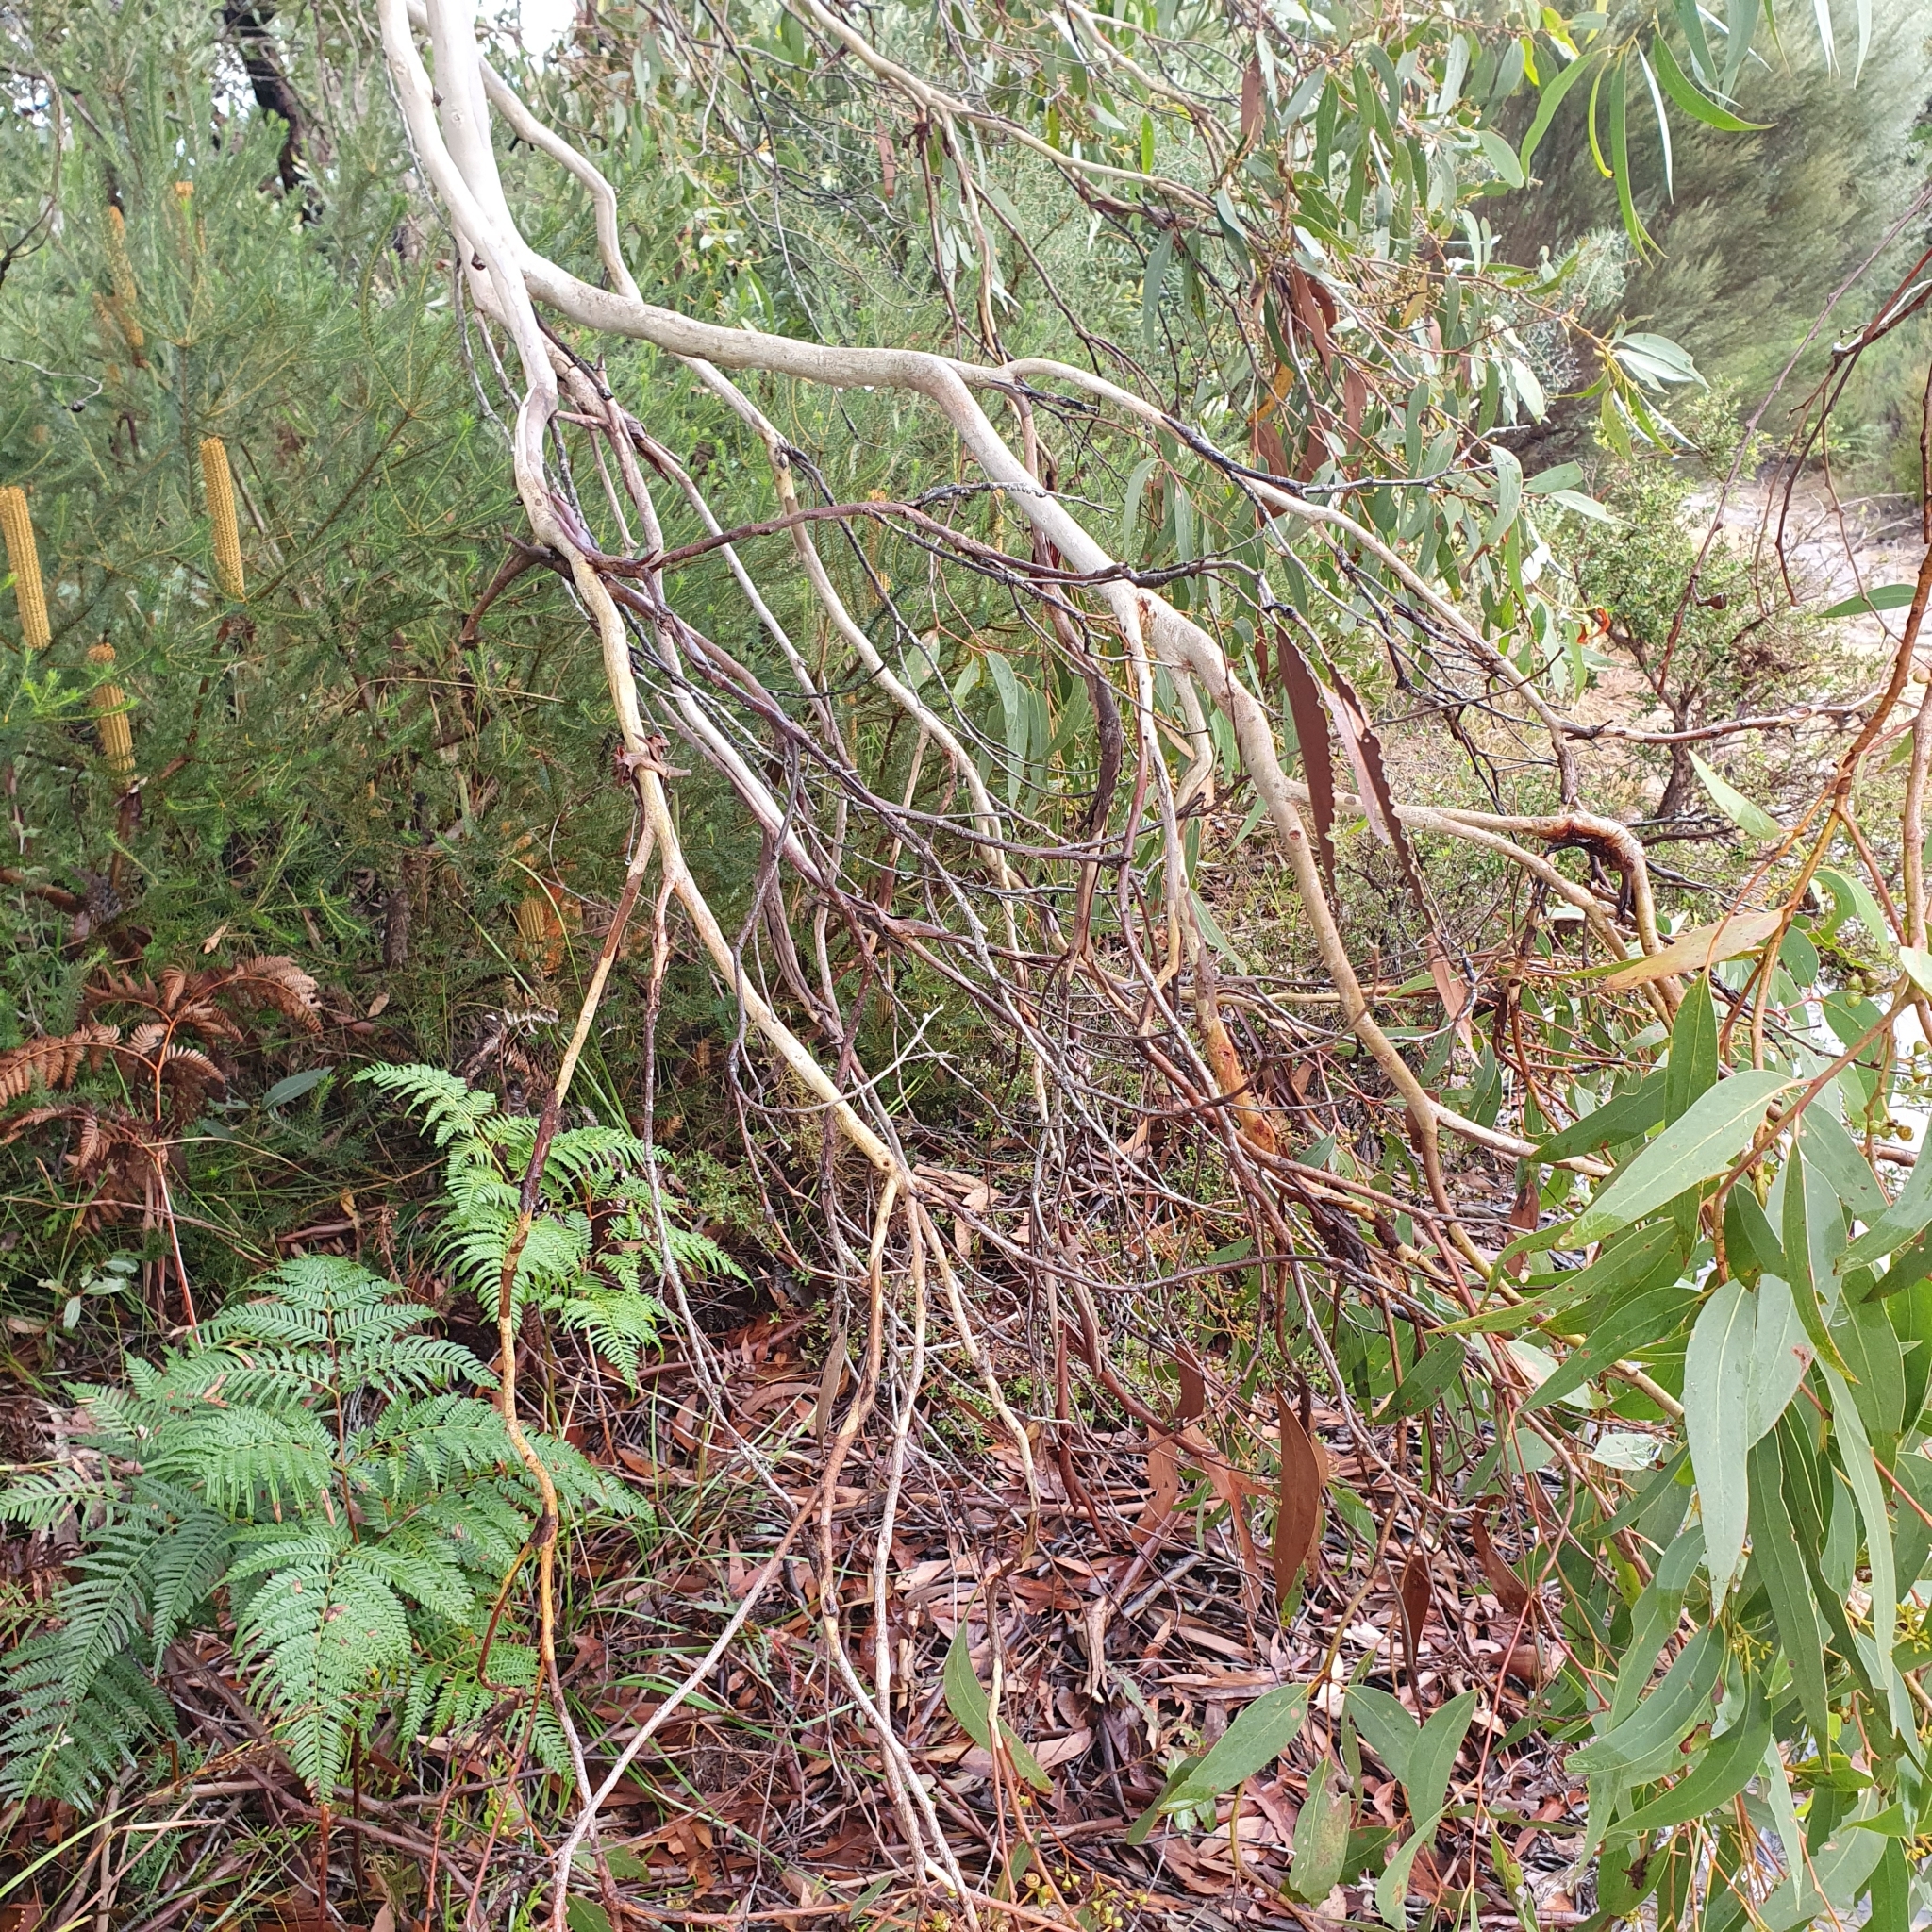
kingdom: Plantae
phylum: Tracheophyta
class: Magnoliopsida
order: Myrtales
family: Myrtaceae
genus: Eucalyptus
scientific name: Eucalyptus racemosa
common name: Scribbly gum
